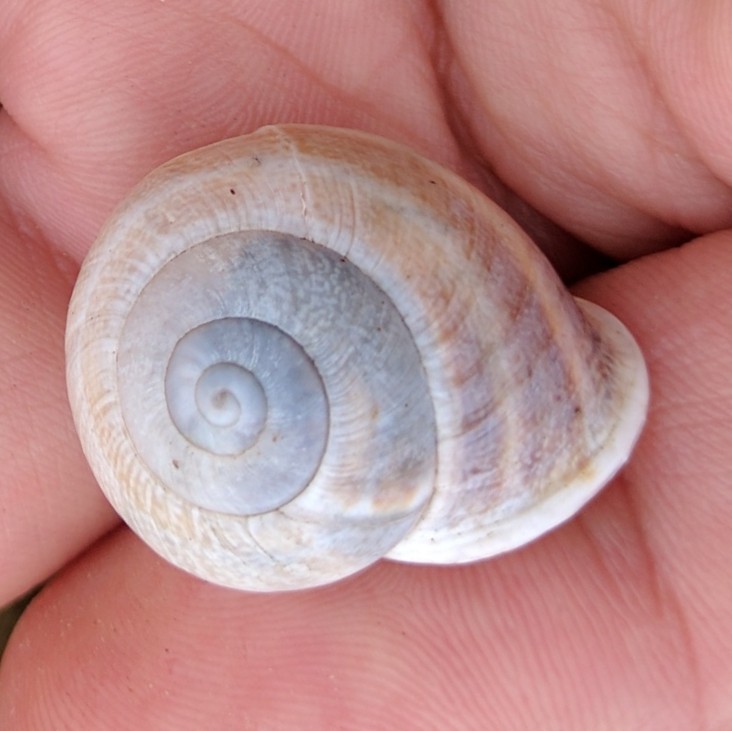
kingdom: Animalia
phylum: Mollusca
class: Gastropoda
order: Stylommatophora
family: Helicidae
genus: Otala
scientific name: Otala lactea
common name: Milk snail
